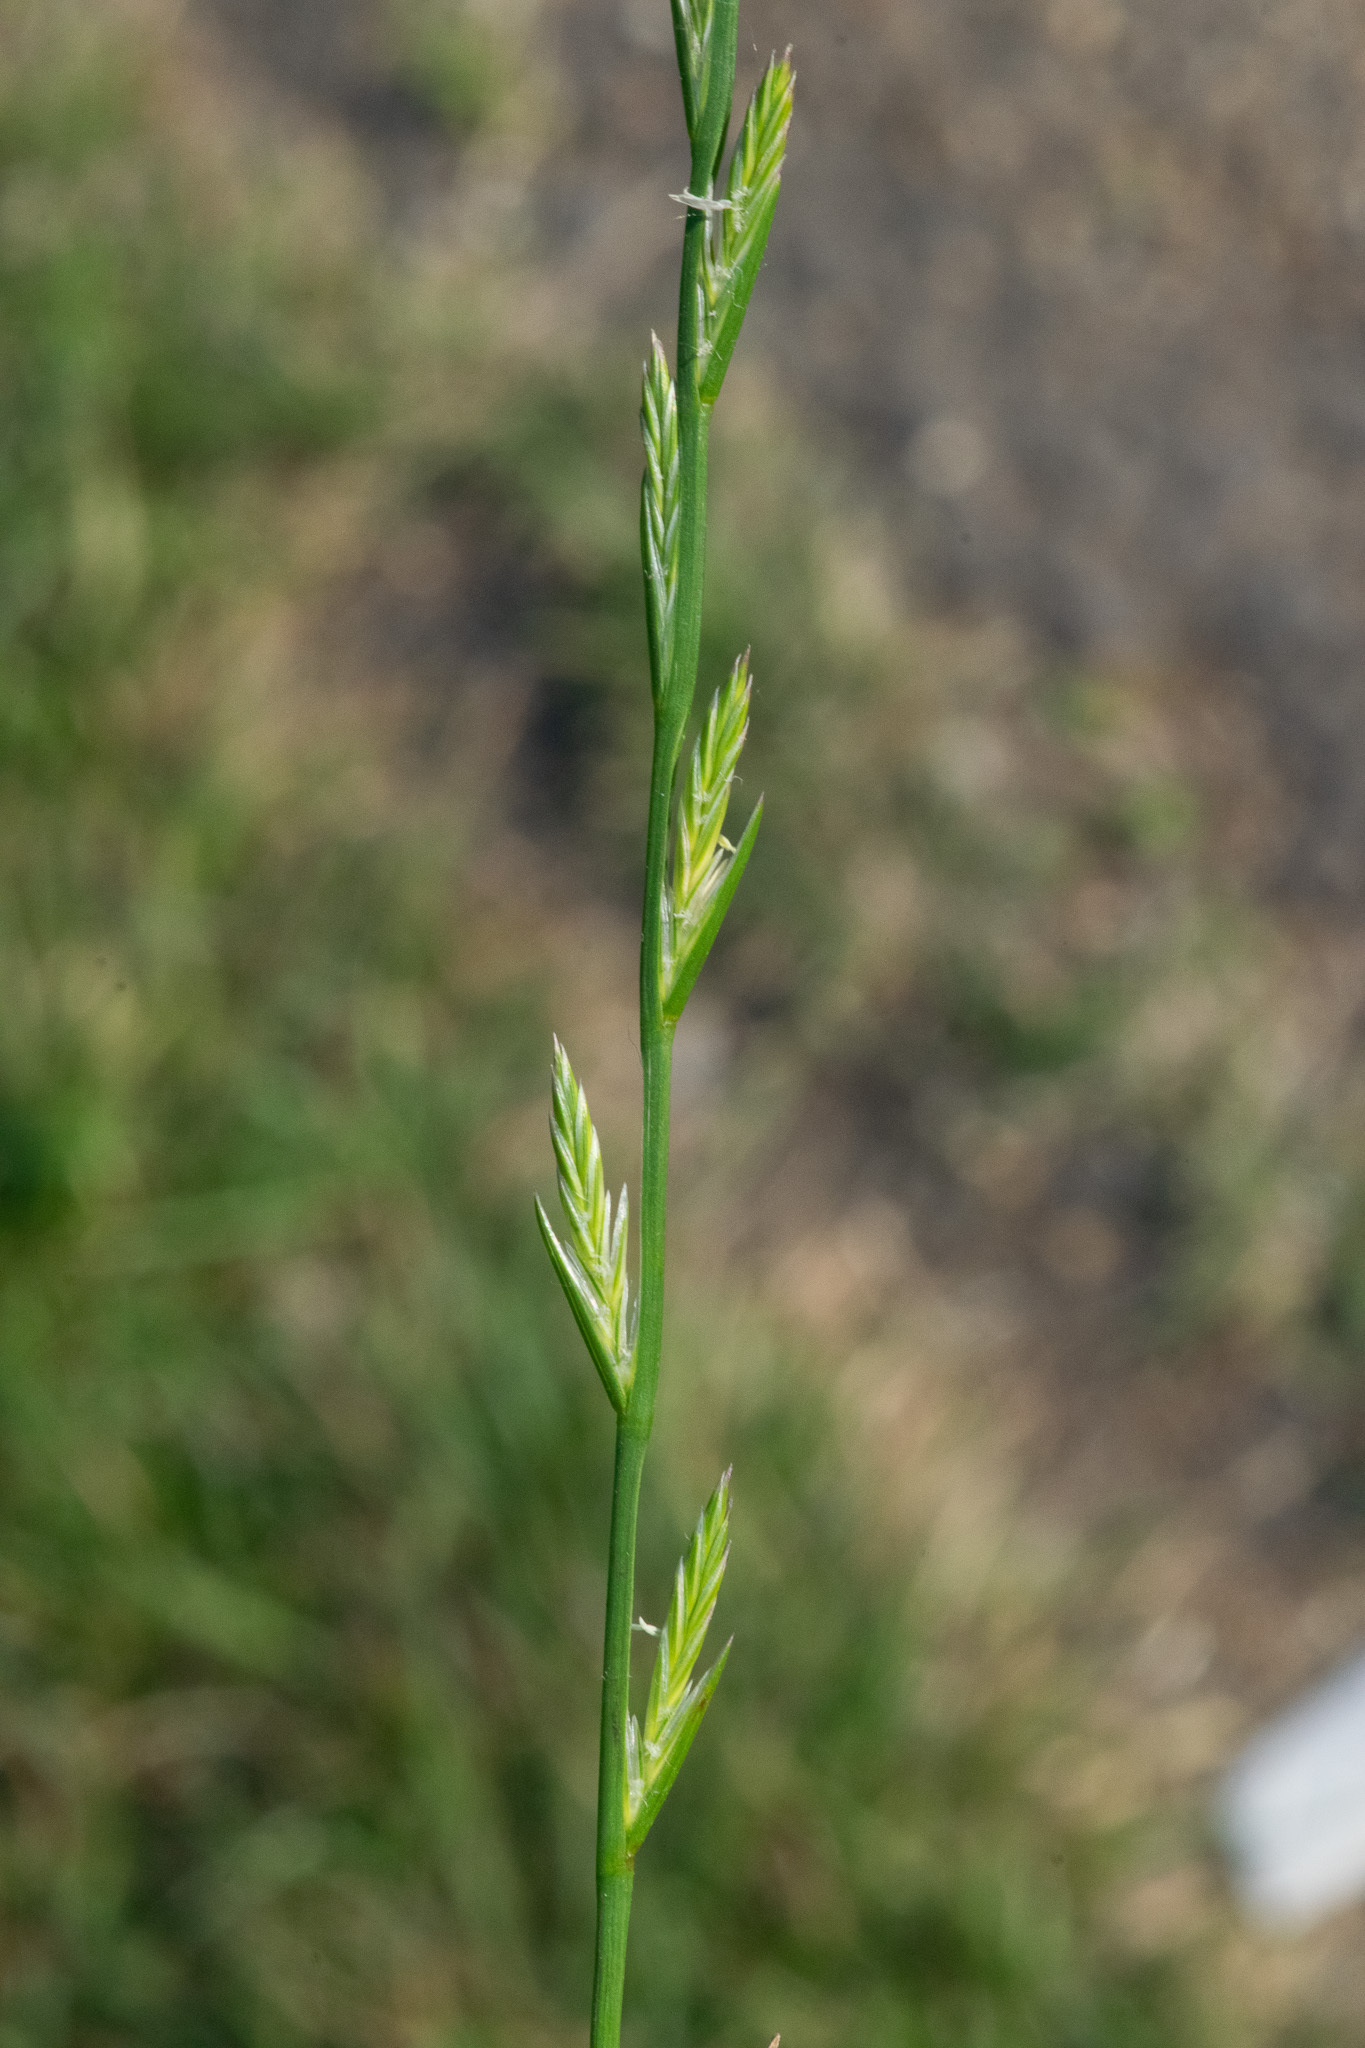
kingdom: Plantae
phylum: Tracheophyta
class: Liliopsida
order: Poales
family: Poaceae
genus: Lolium
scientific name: Lolium perenne
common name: Perennial ryegrass
